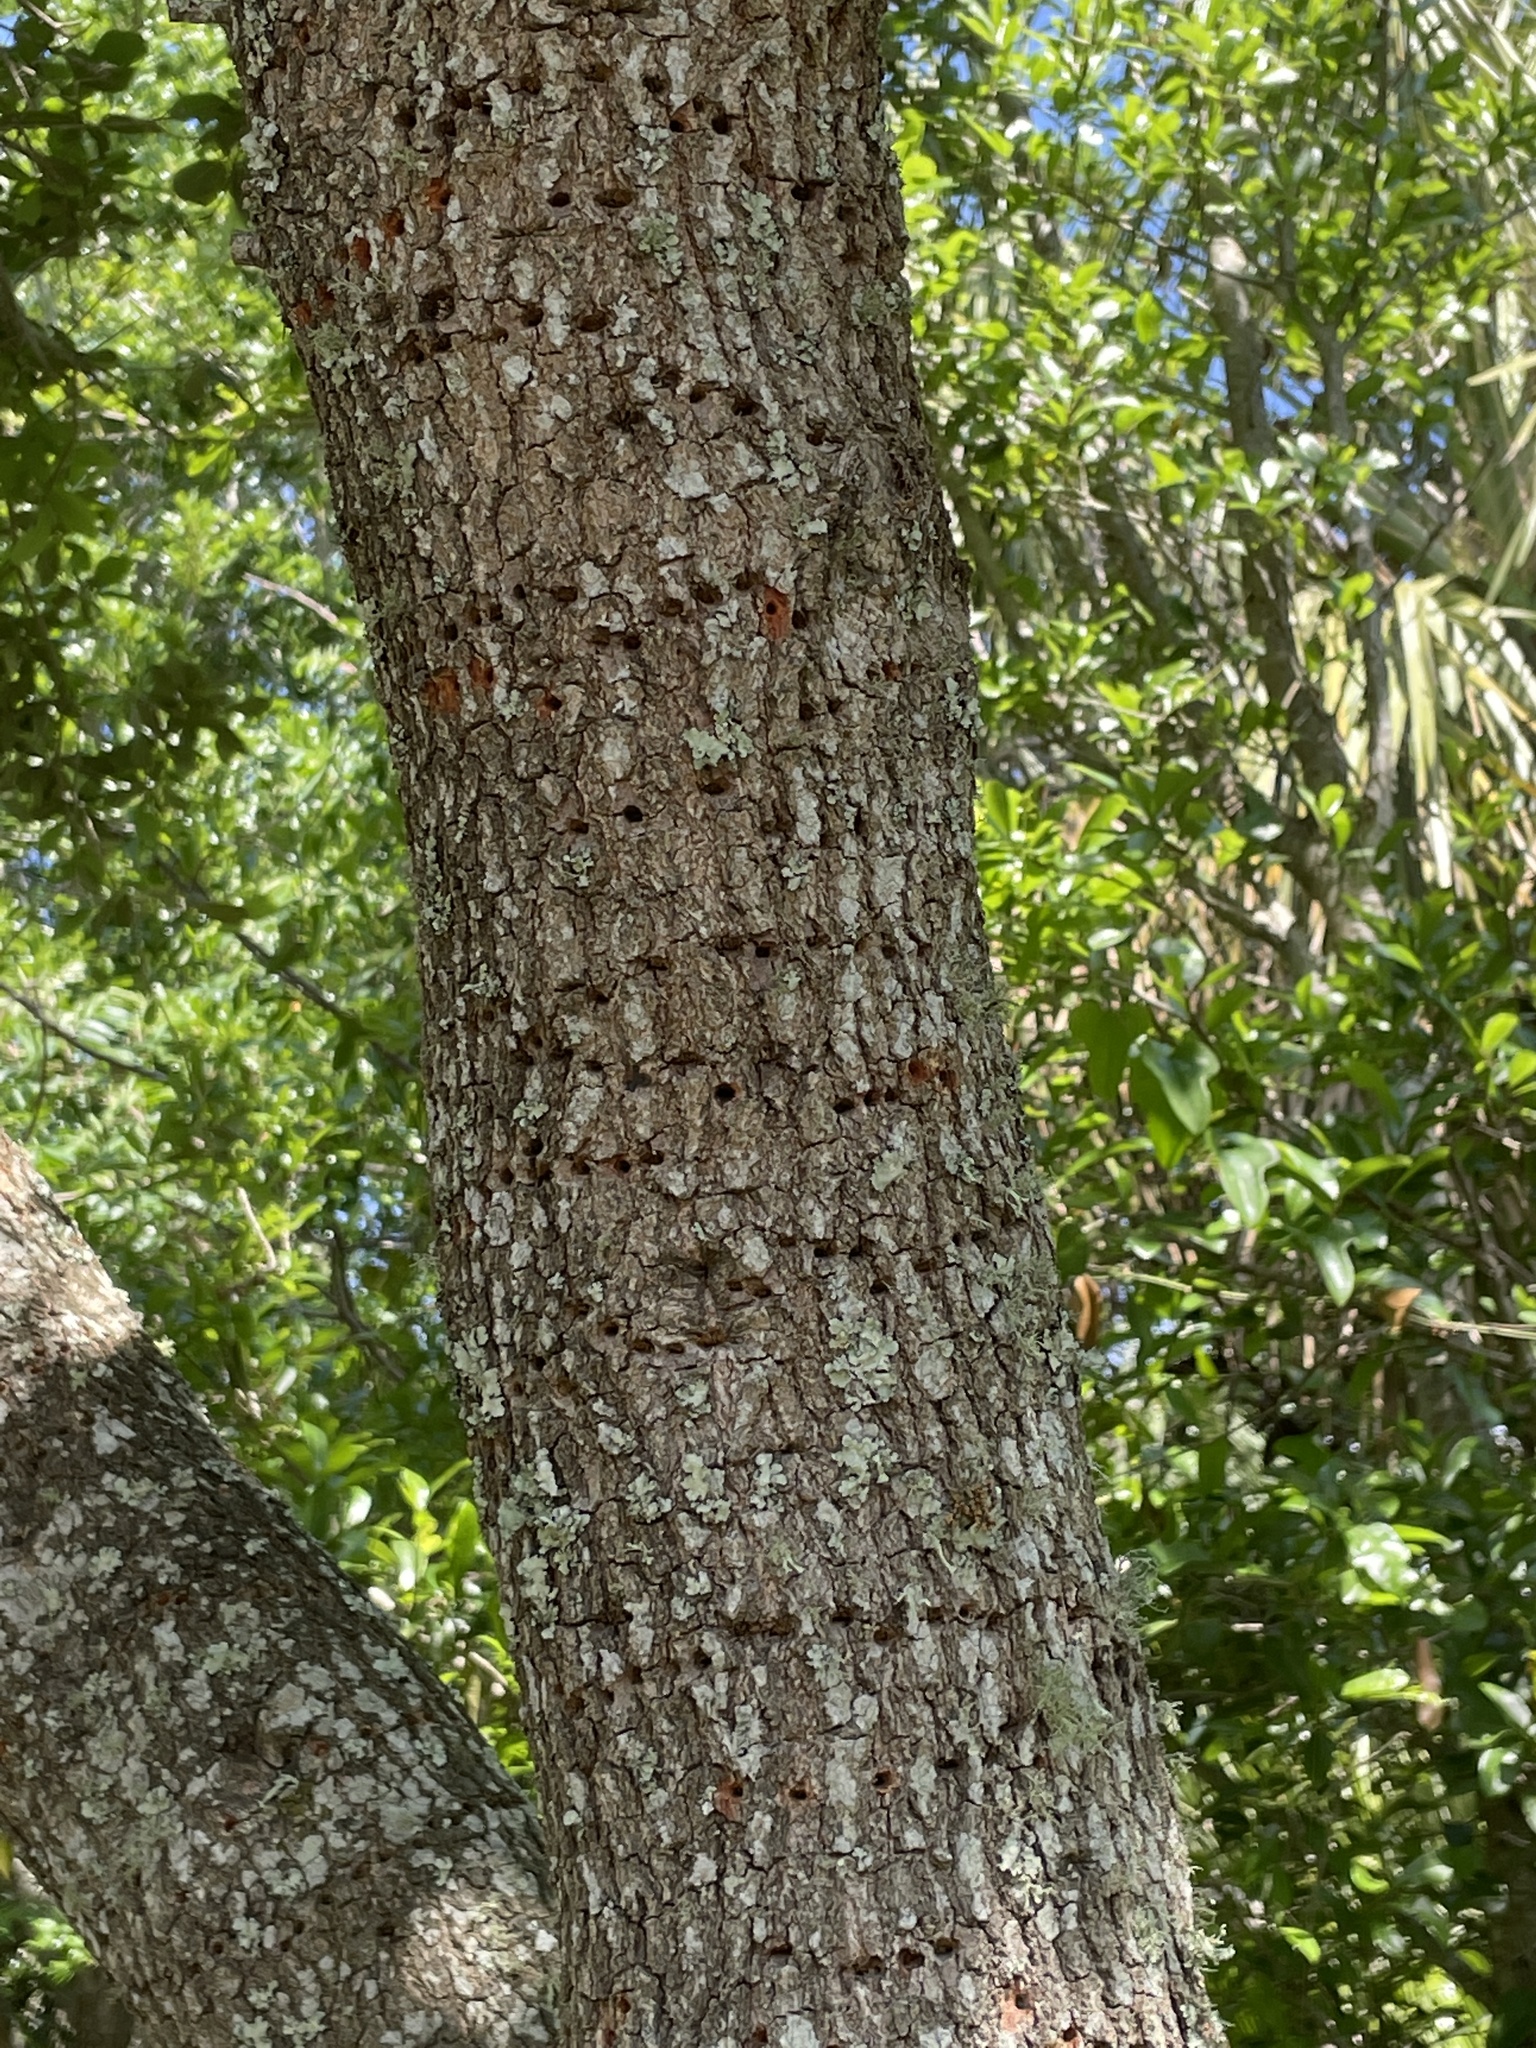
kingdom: Animalia
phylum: Chordata
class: Aves
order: Piciformes
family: Picidae
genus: Sphyrapicus
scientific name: Sphyrapicus varius
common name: Yellow-bellied sapsucker
